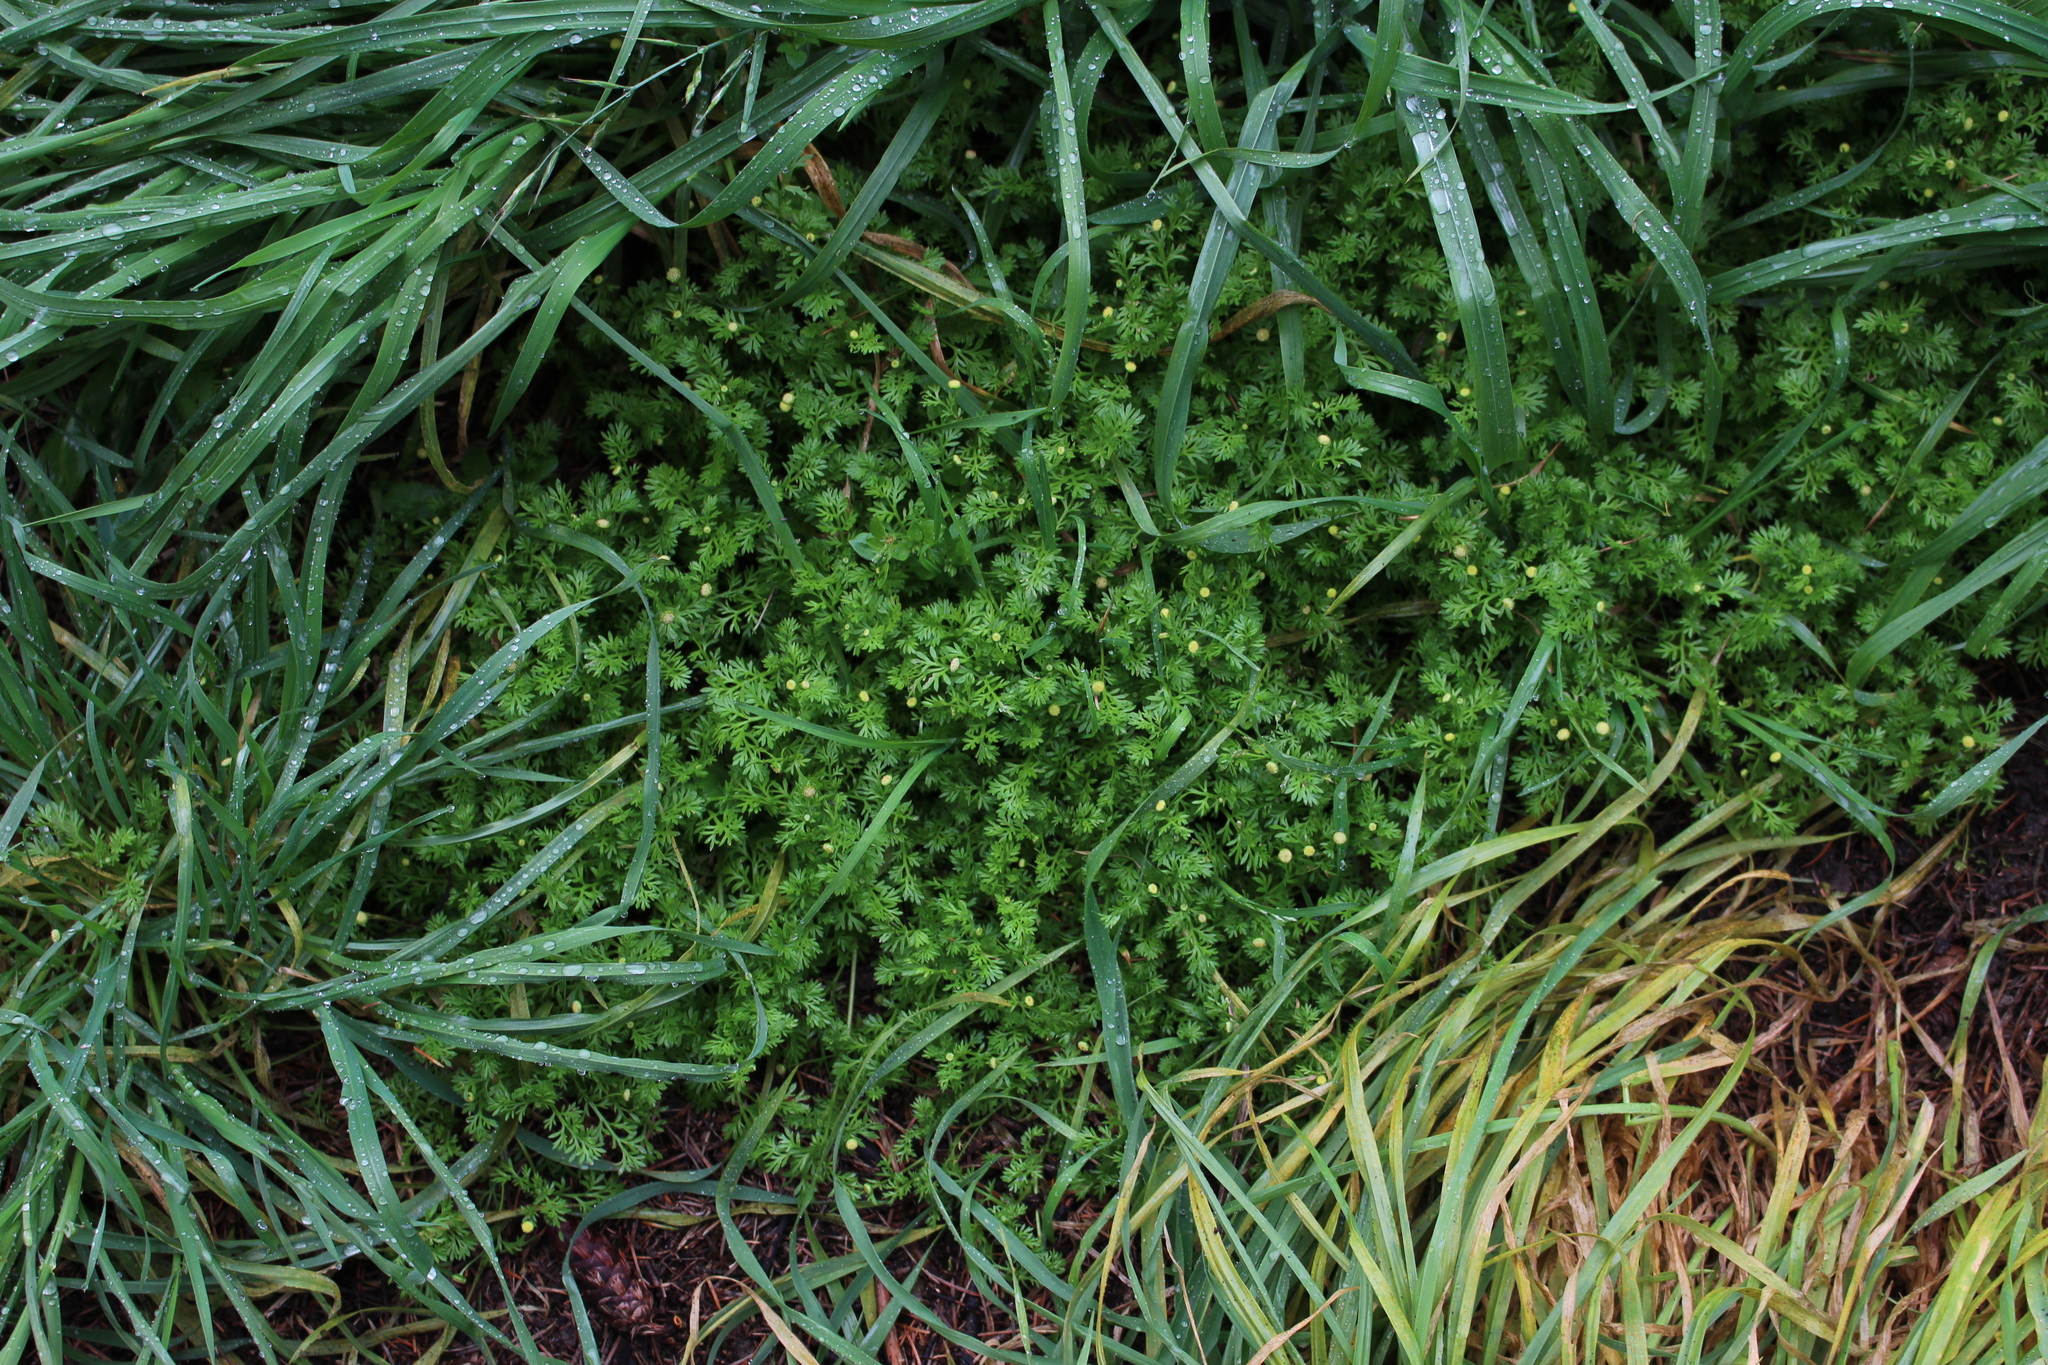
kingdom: Plantae
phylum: Tracheophyta
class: Magnoliopsida
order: Asterales
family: Asteraceae
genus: Cotula
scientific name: Cotula australis
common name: Australian waterbuttons
